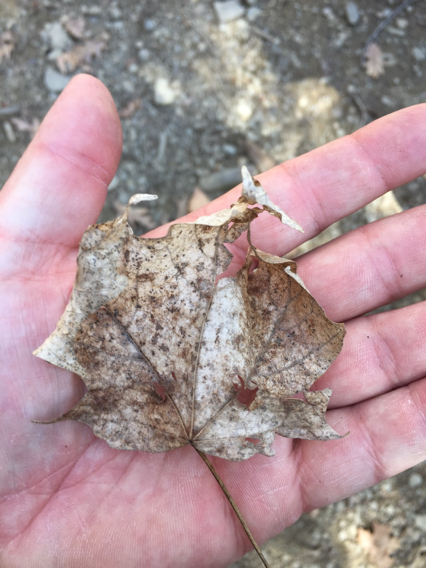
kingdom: Plantae
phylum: Tracheophyta
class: Magnoliopsida
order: Sapindales
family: Sapindaceae
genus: Acer
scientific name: Acer saccharum
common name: Sugar maple
